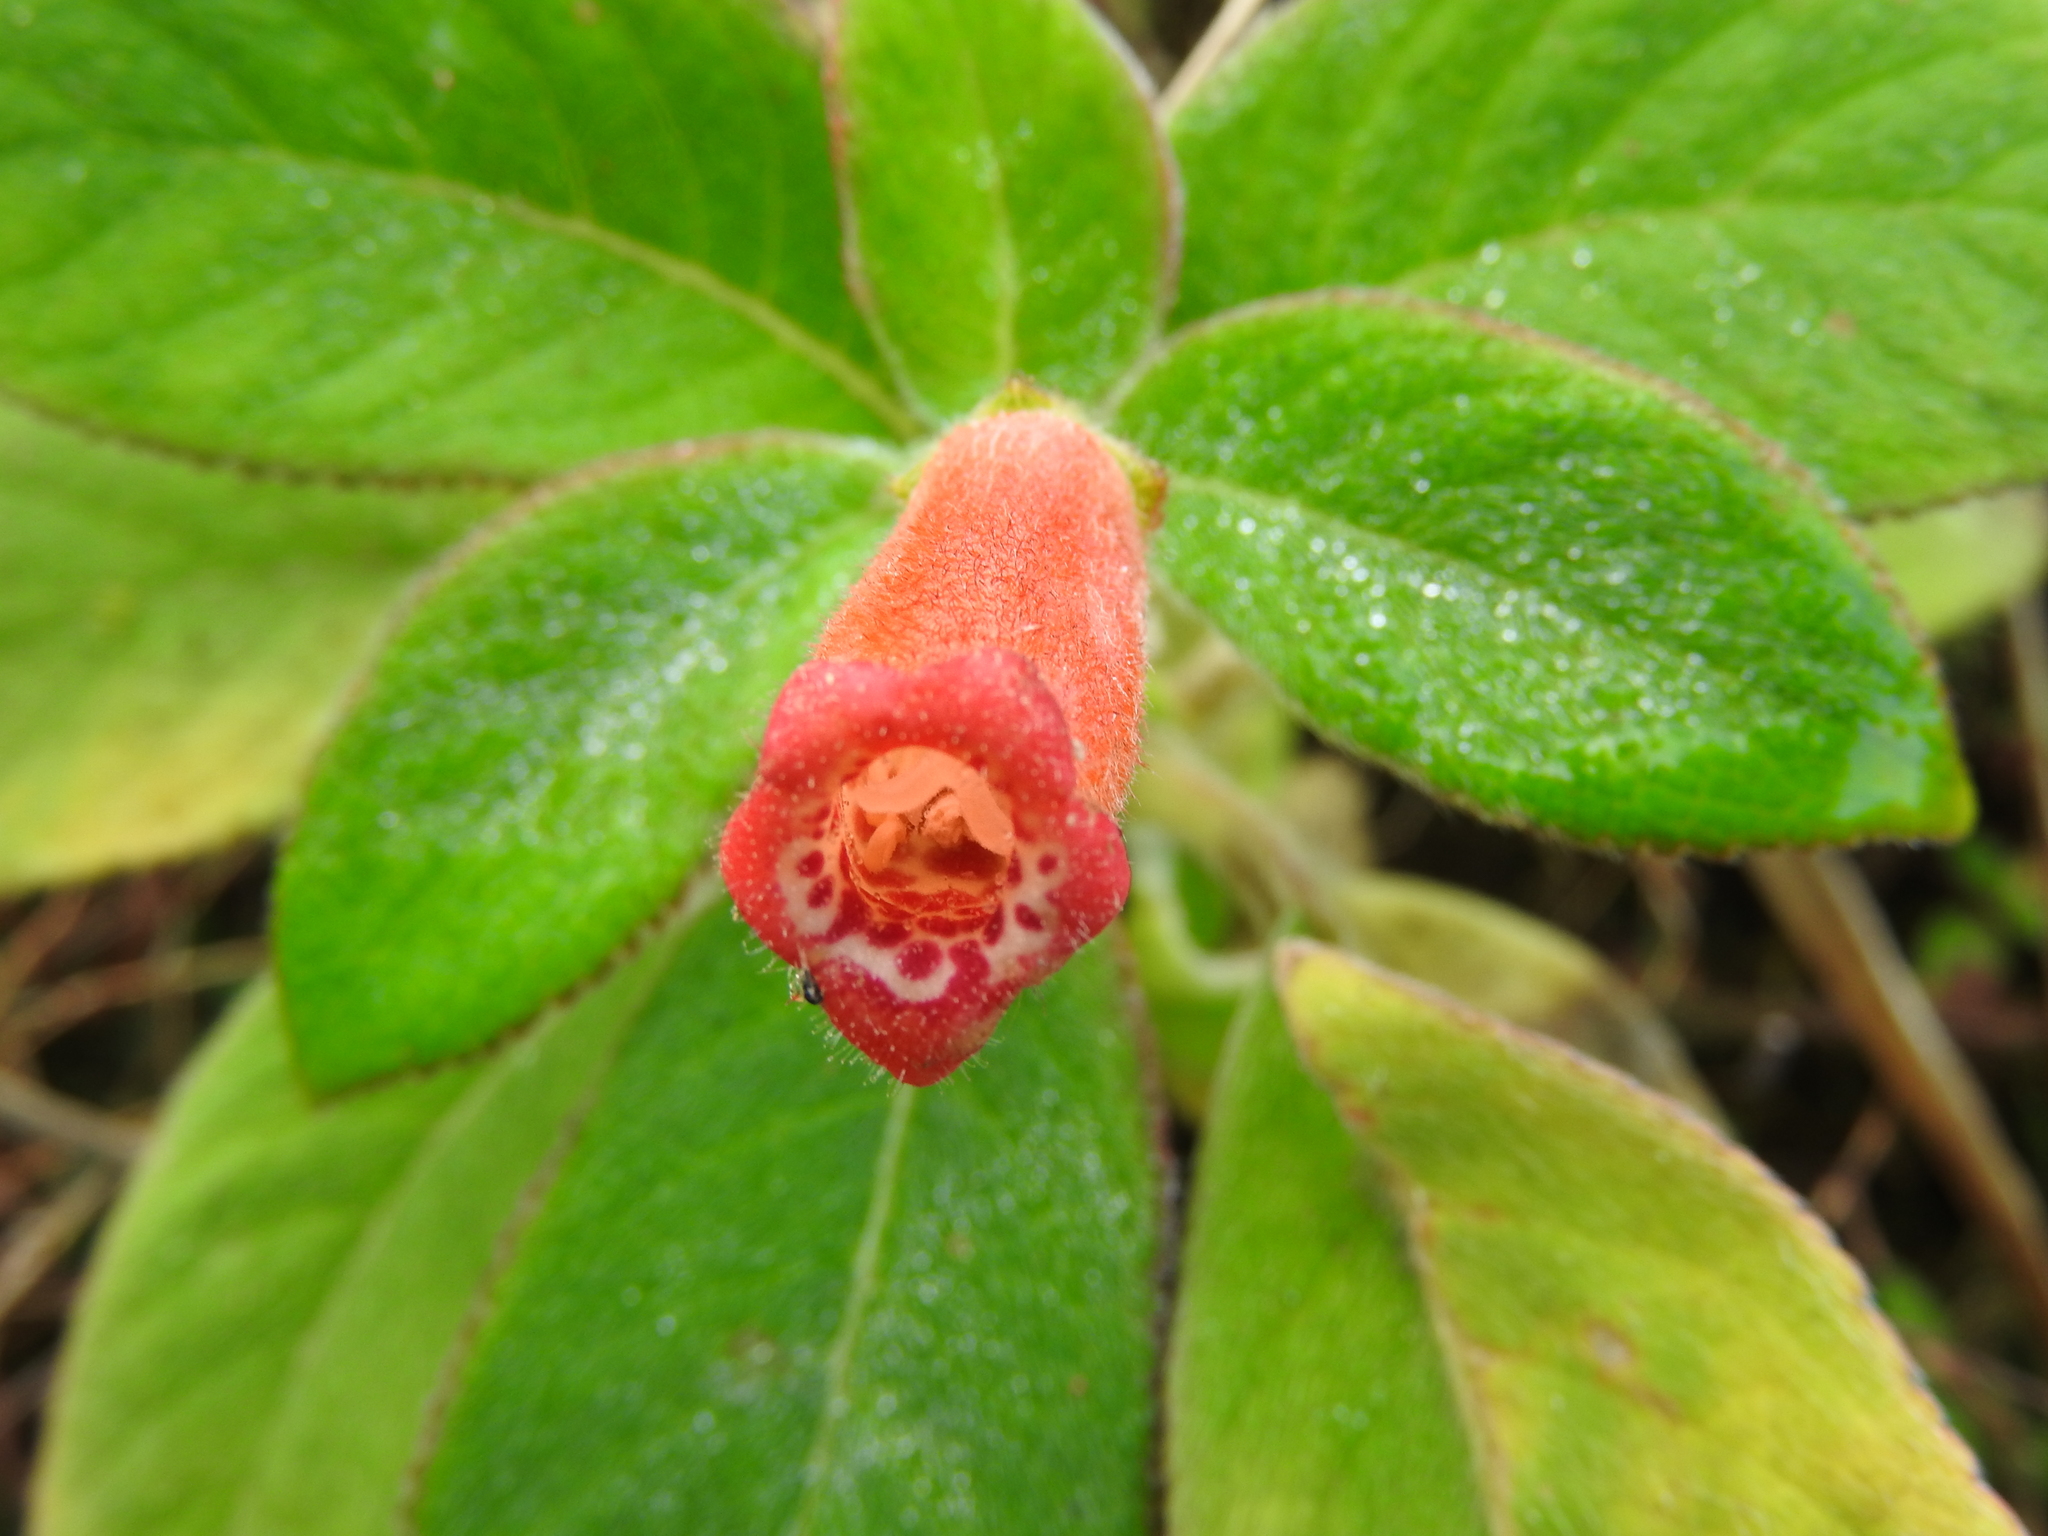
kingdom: Plantae
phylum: Tracheophyta
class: Magnoliopsida
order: Lamiales
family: Gesneriaceae
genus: Kohleria
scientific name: Kohleria spicata
